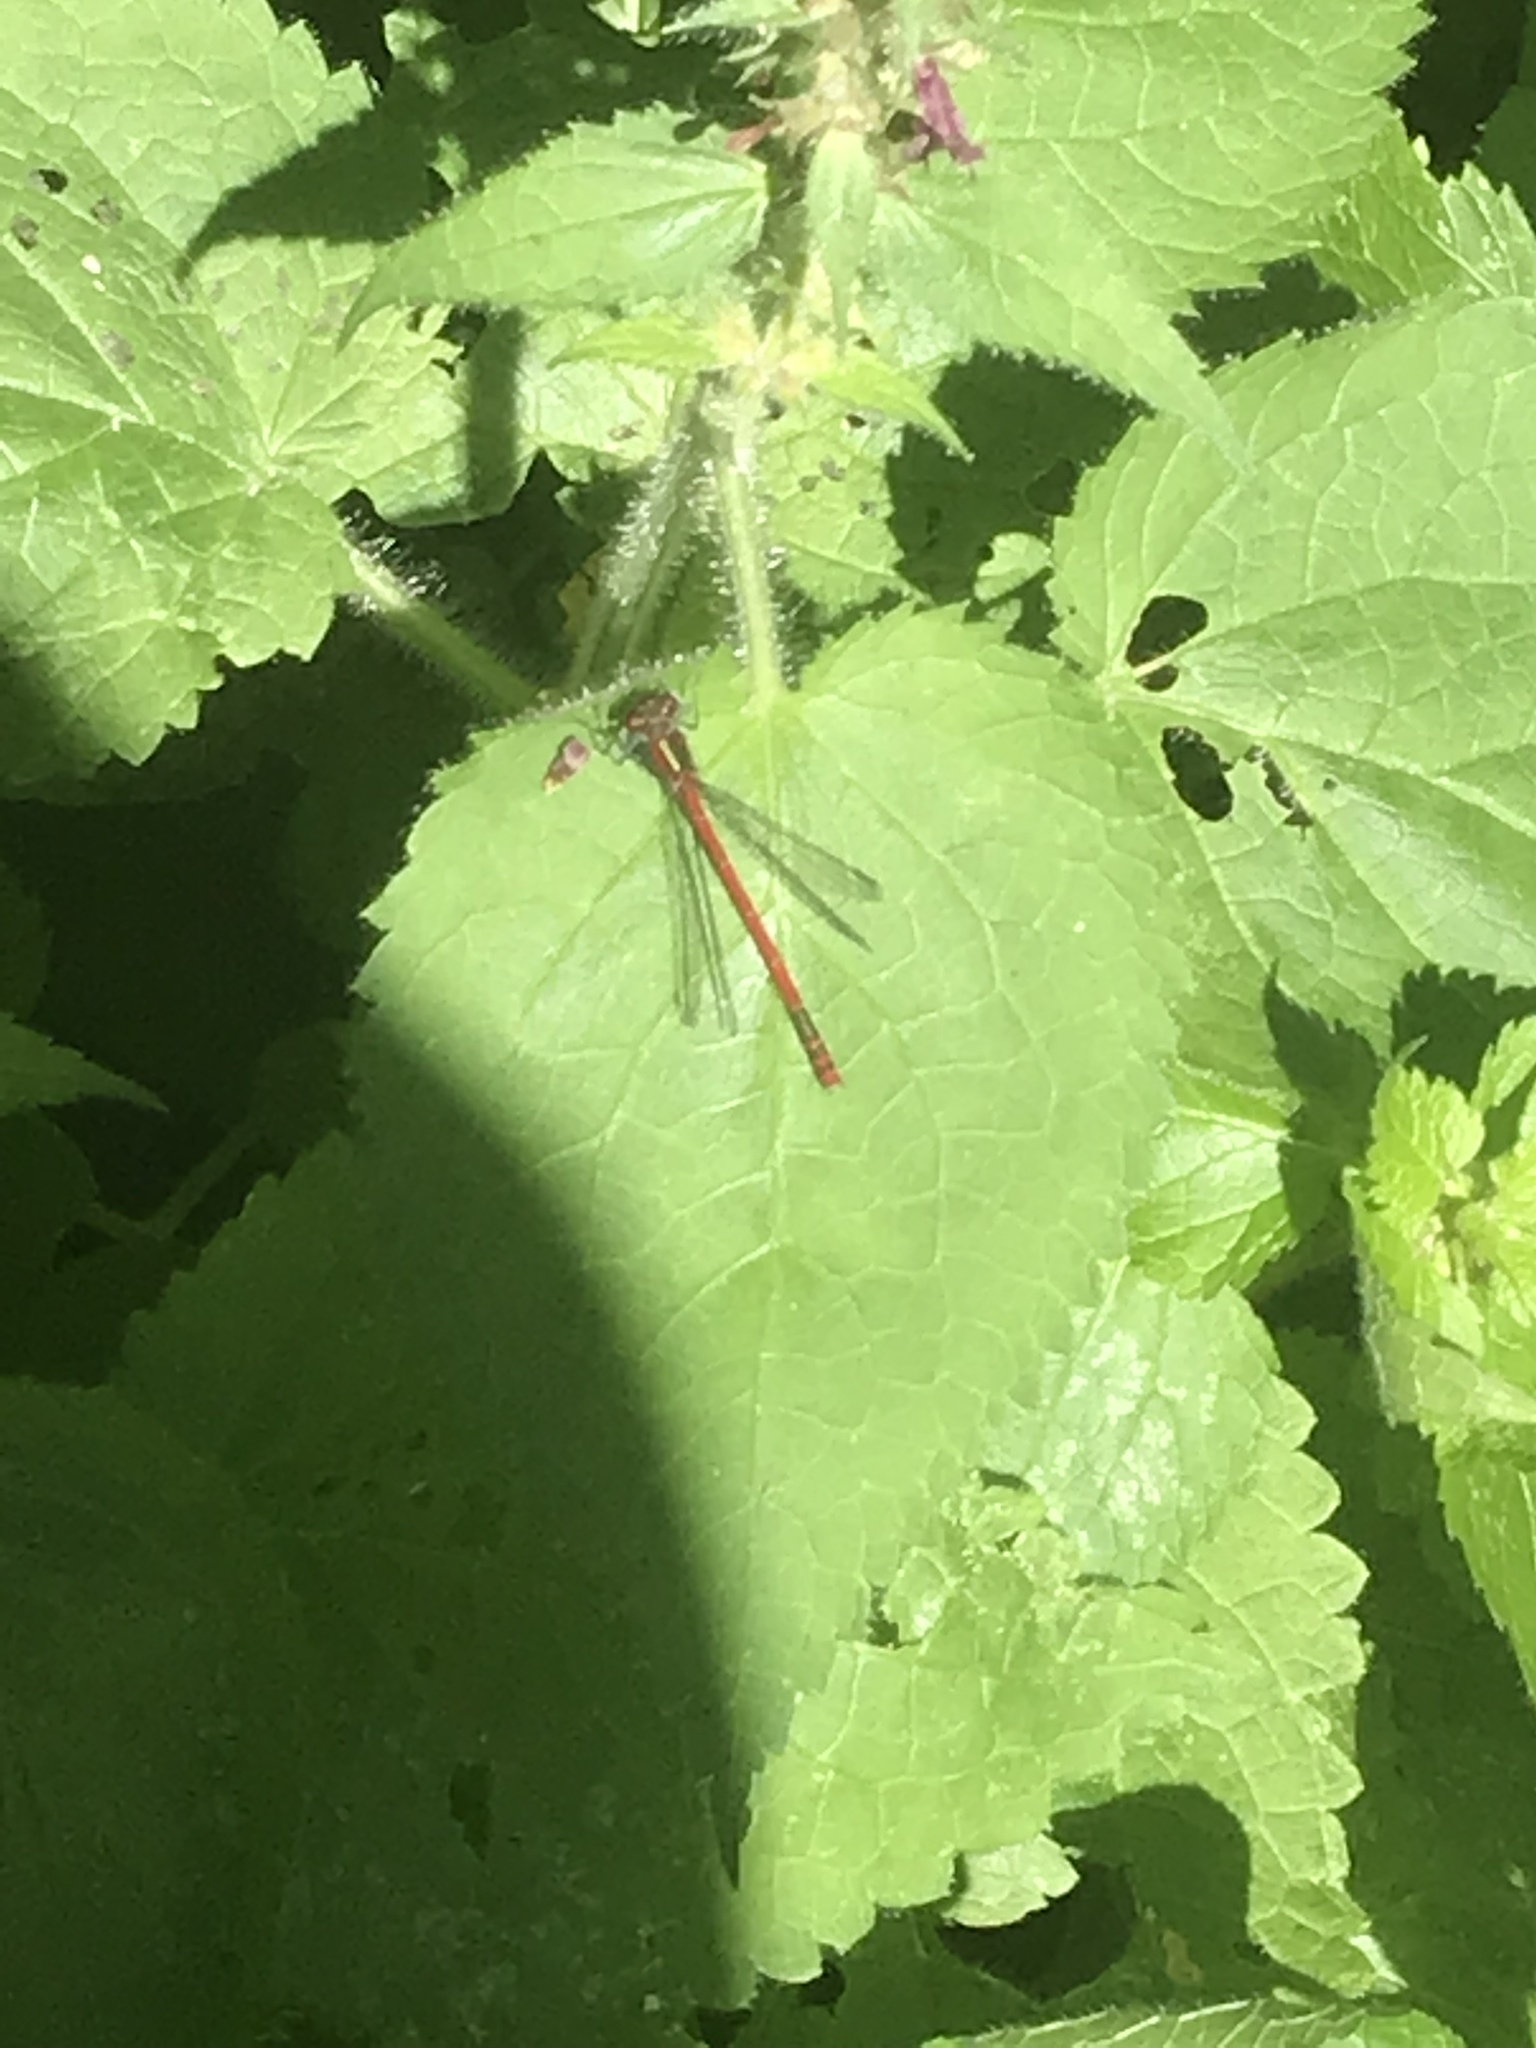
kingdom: Animalia
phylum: Arthropoda
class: Insecta
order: Odonata
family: Coenagrionidae
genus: Pyrrhosoma
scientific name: Pyrrhosoma nymphula
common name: Large red damsel
